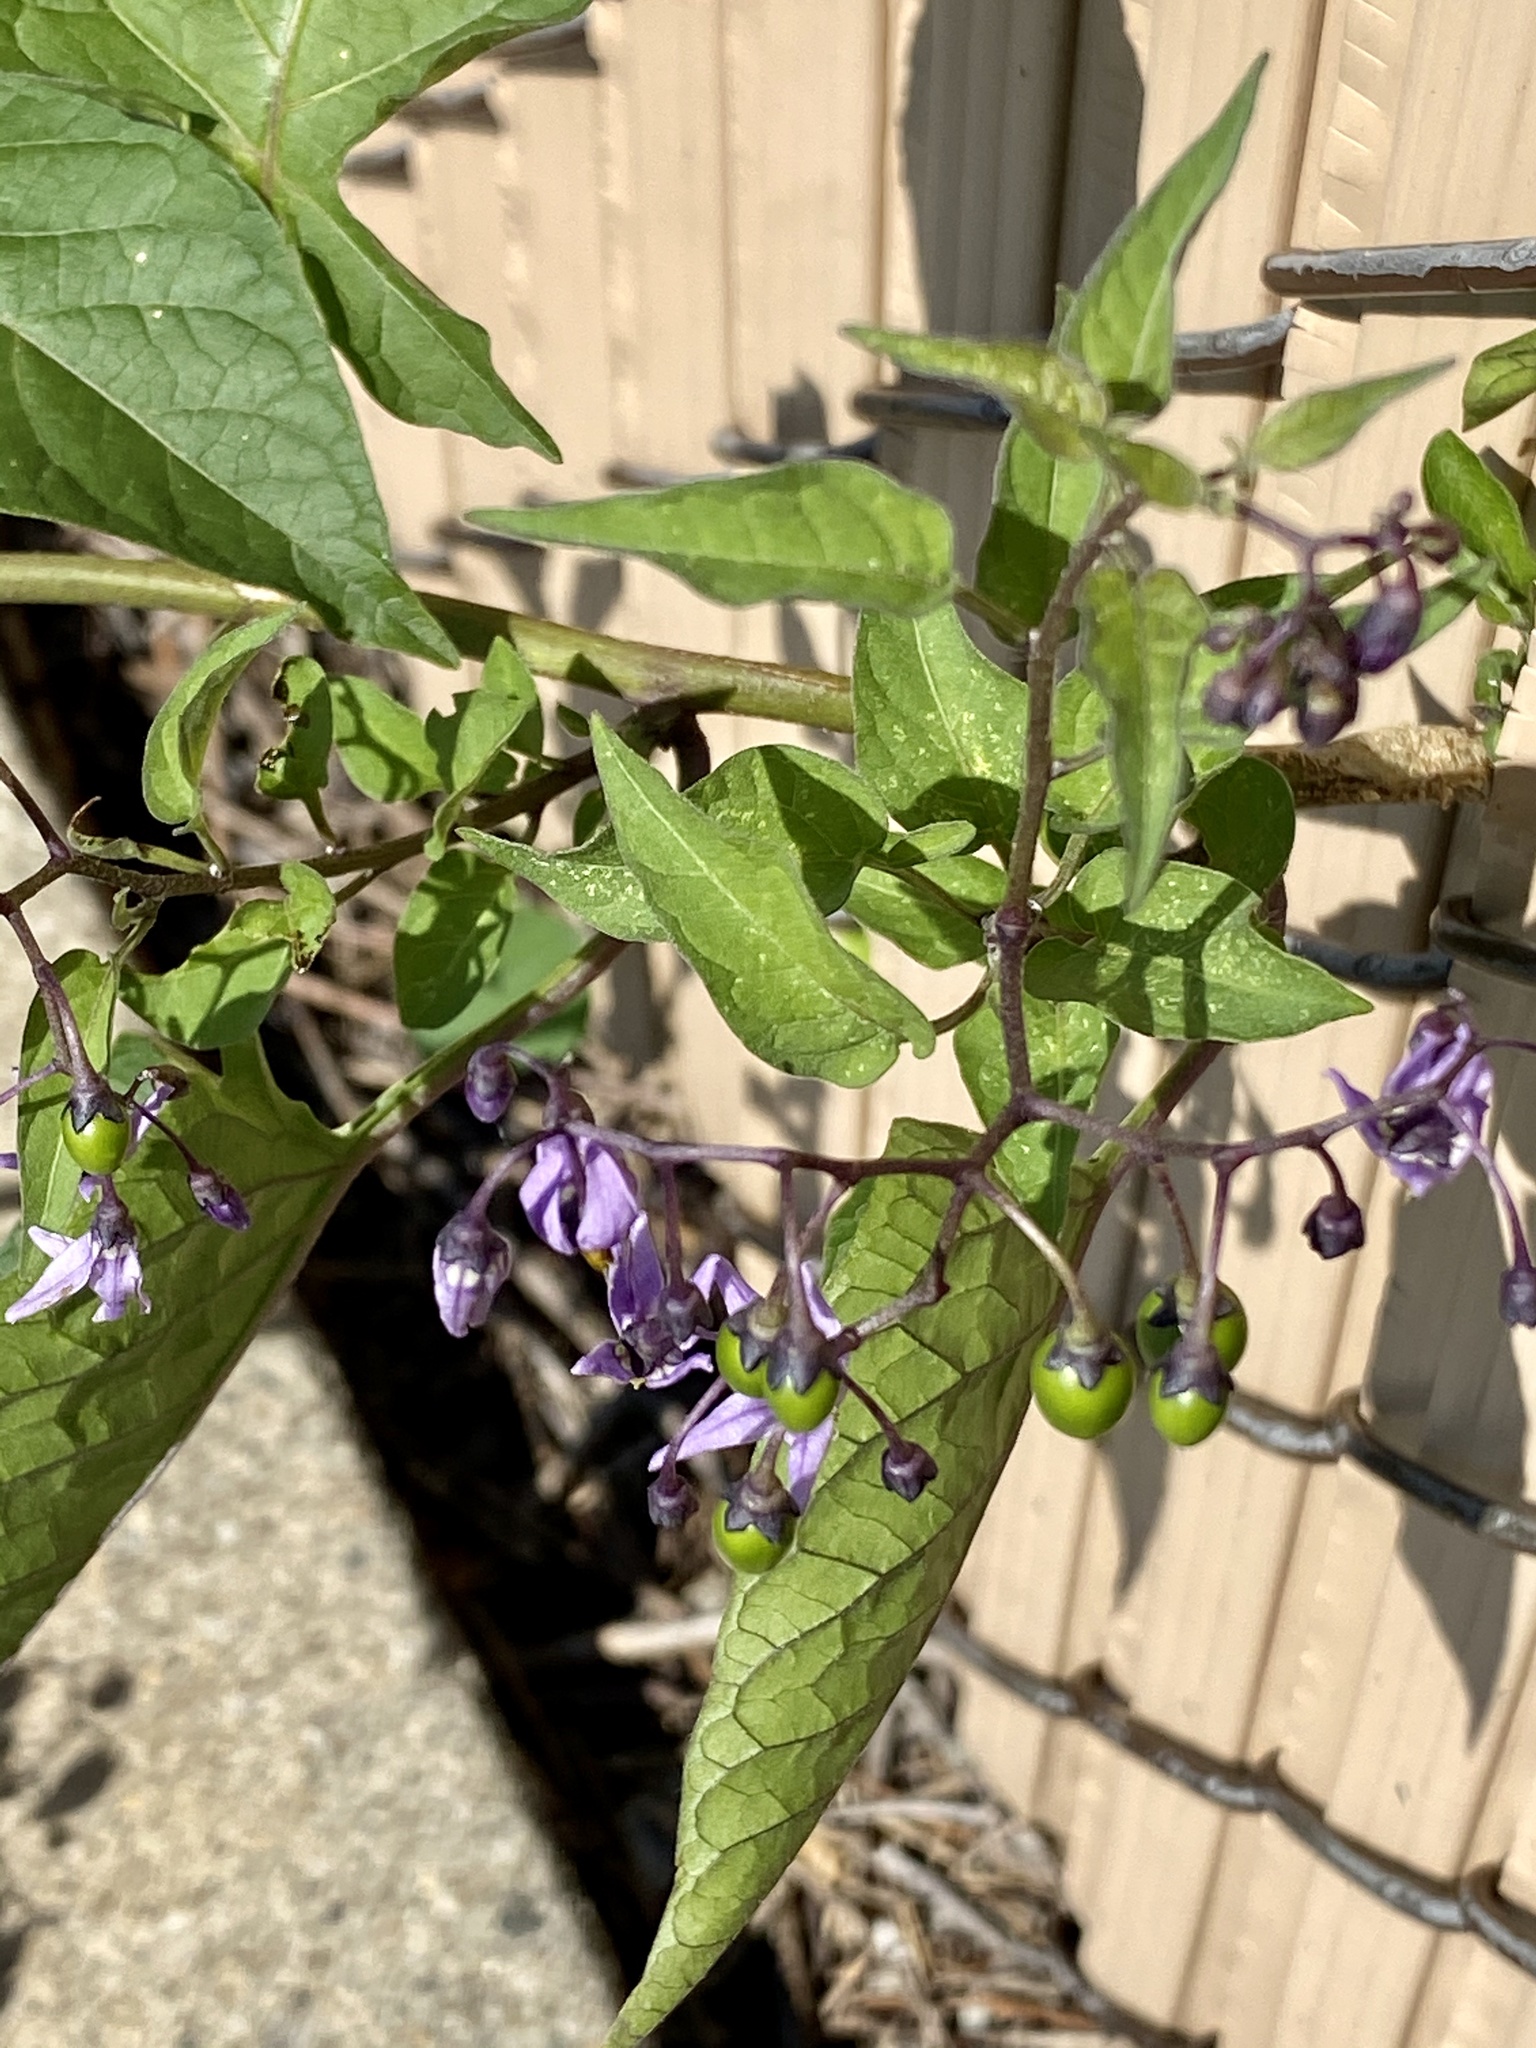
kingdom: Plantae
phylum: Tracheophyta
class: Magnoliopsida
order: Solanales
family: Solanaceae
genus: Solanum
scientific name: Solanum dulcamara
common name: Climbing nightshade
